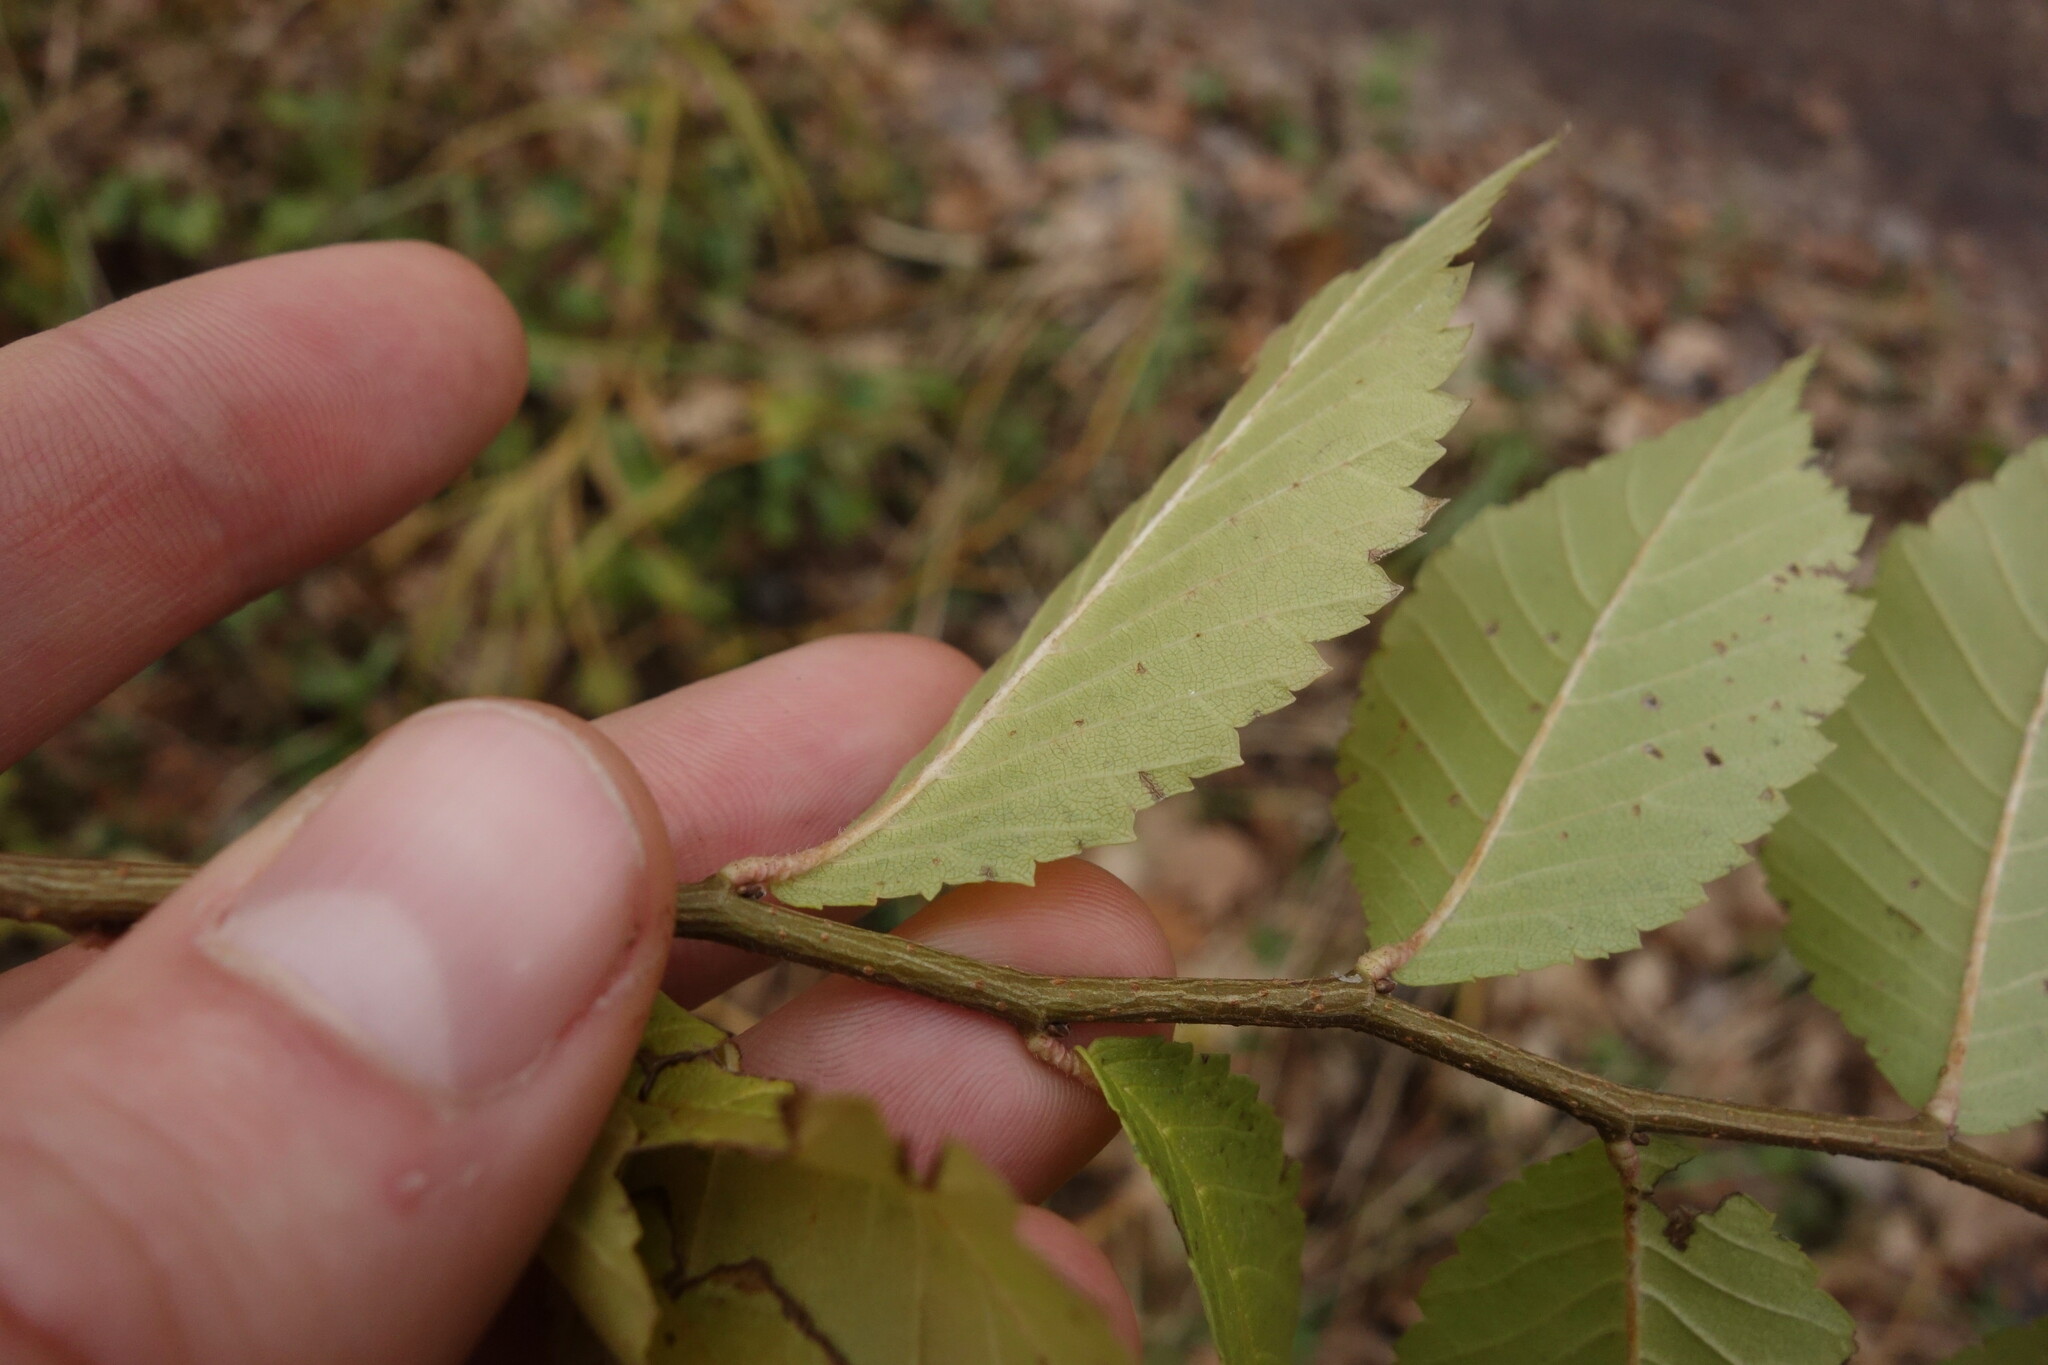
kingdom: Plantae
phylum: Tracheophyta
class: Magnoliopsida
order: Rosales
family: Ulmaceae
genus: Ulmus
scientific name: Ulmus pumila
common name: Siberian elm
